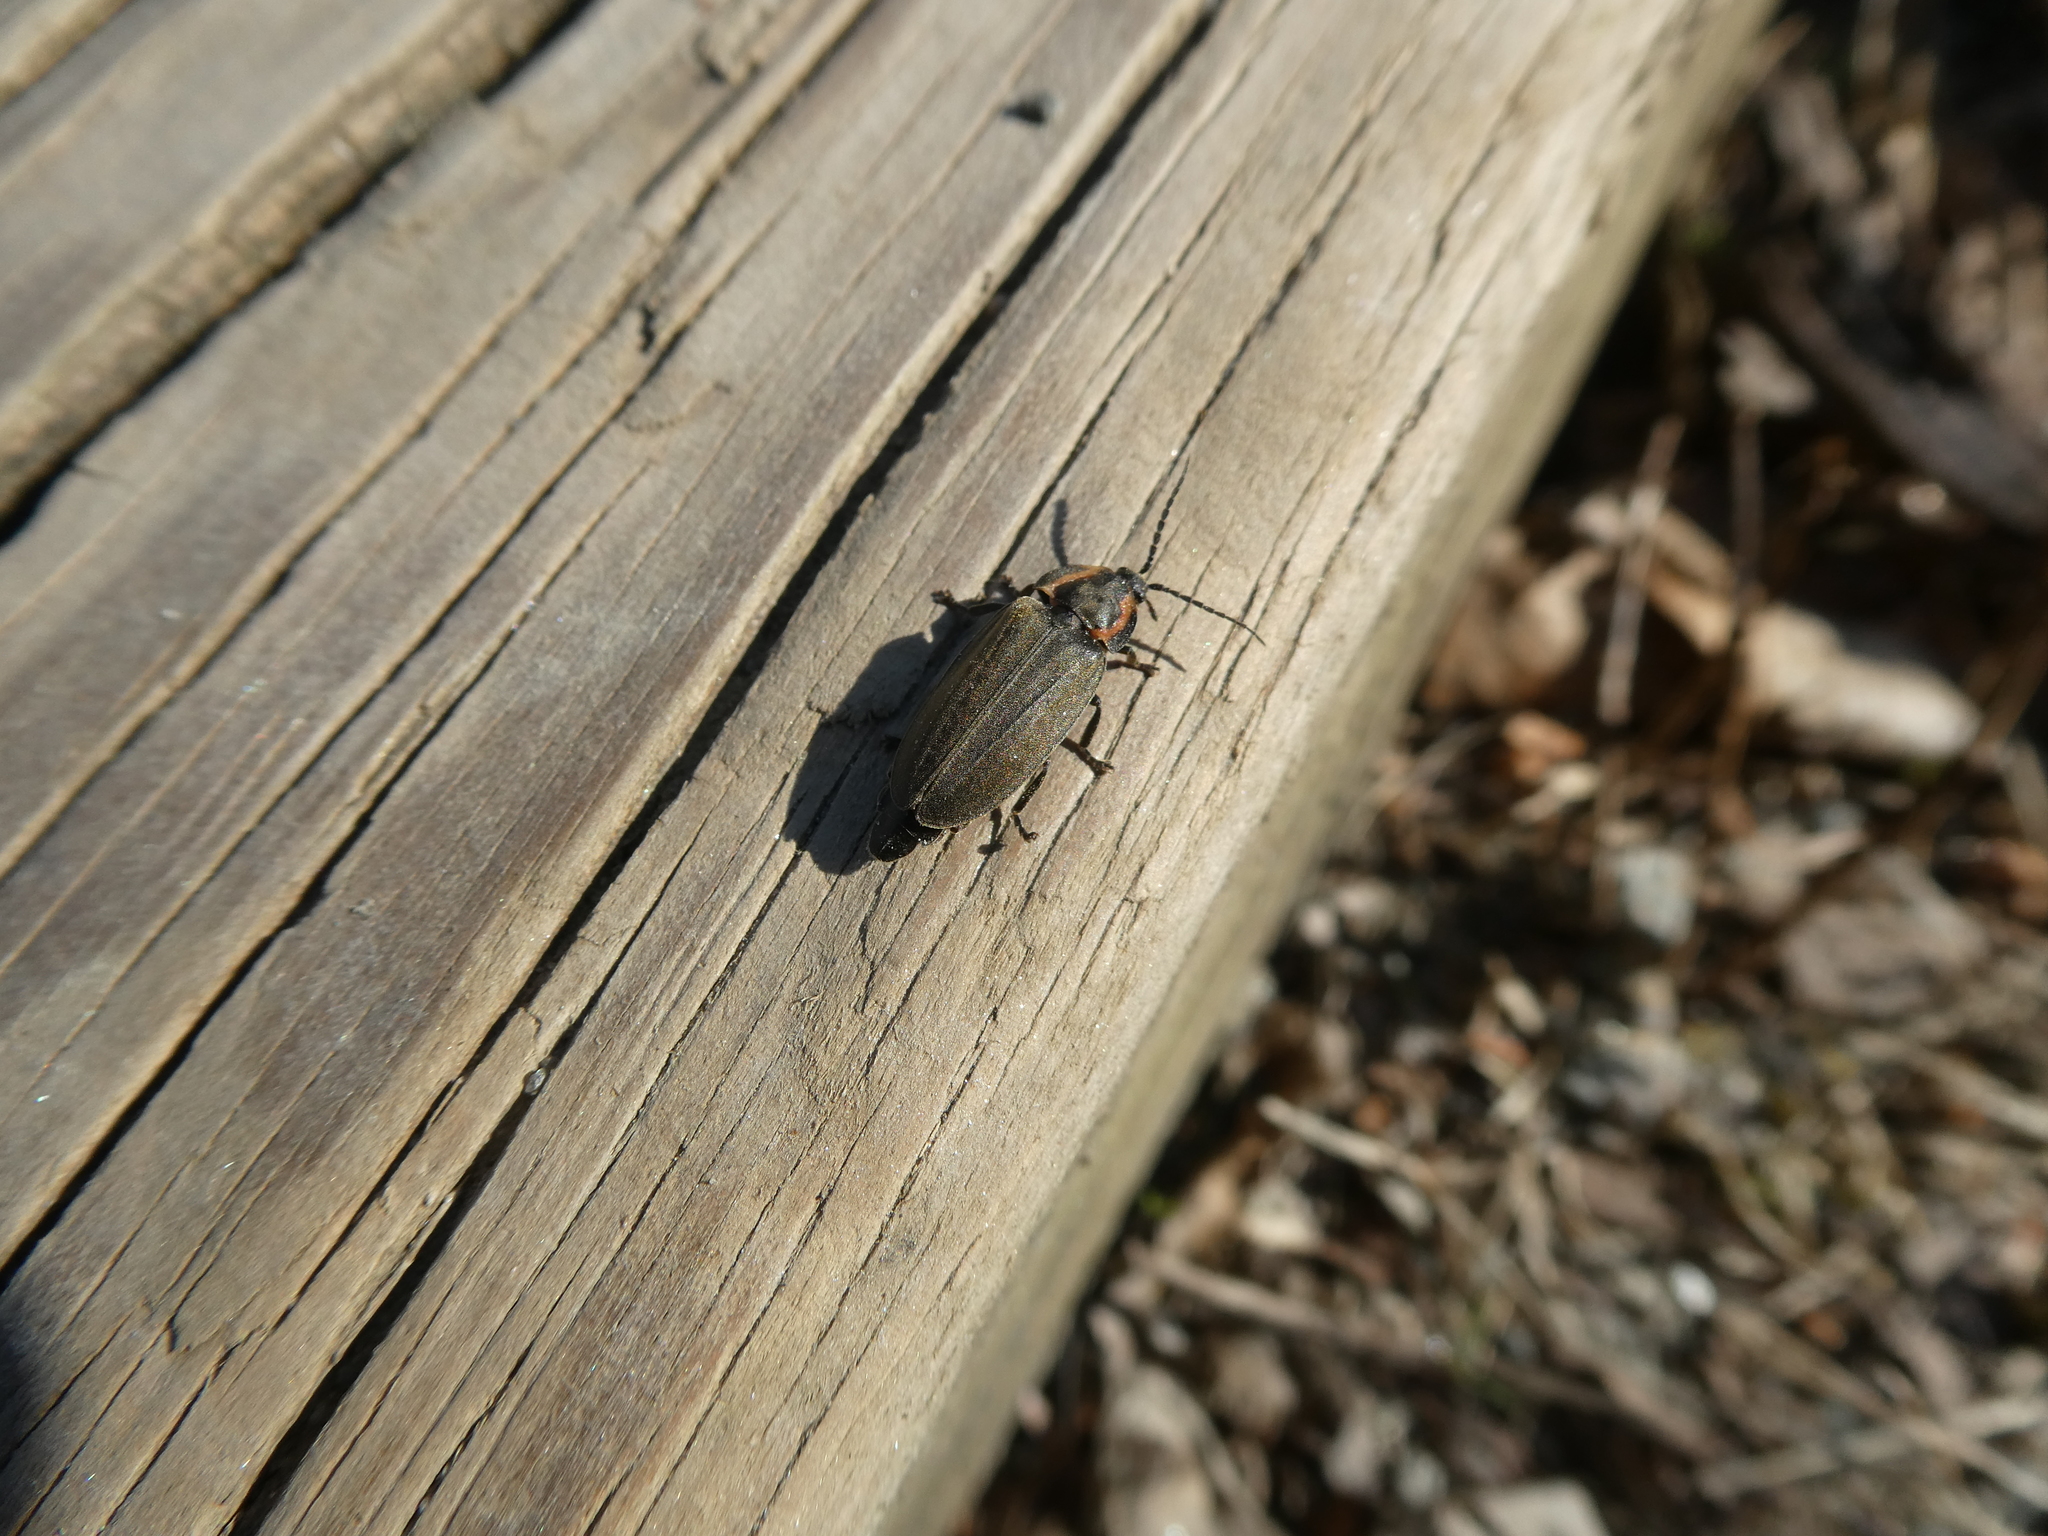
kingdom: Animalia
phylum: Arthropoda
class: Insecta
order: Coleoptera
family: Lampyridae
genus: Photinus
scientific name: Photinus corrusca
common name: Winter firefly
